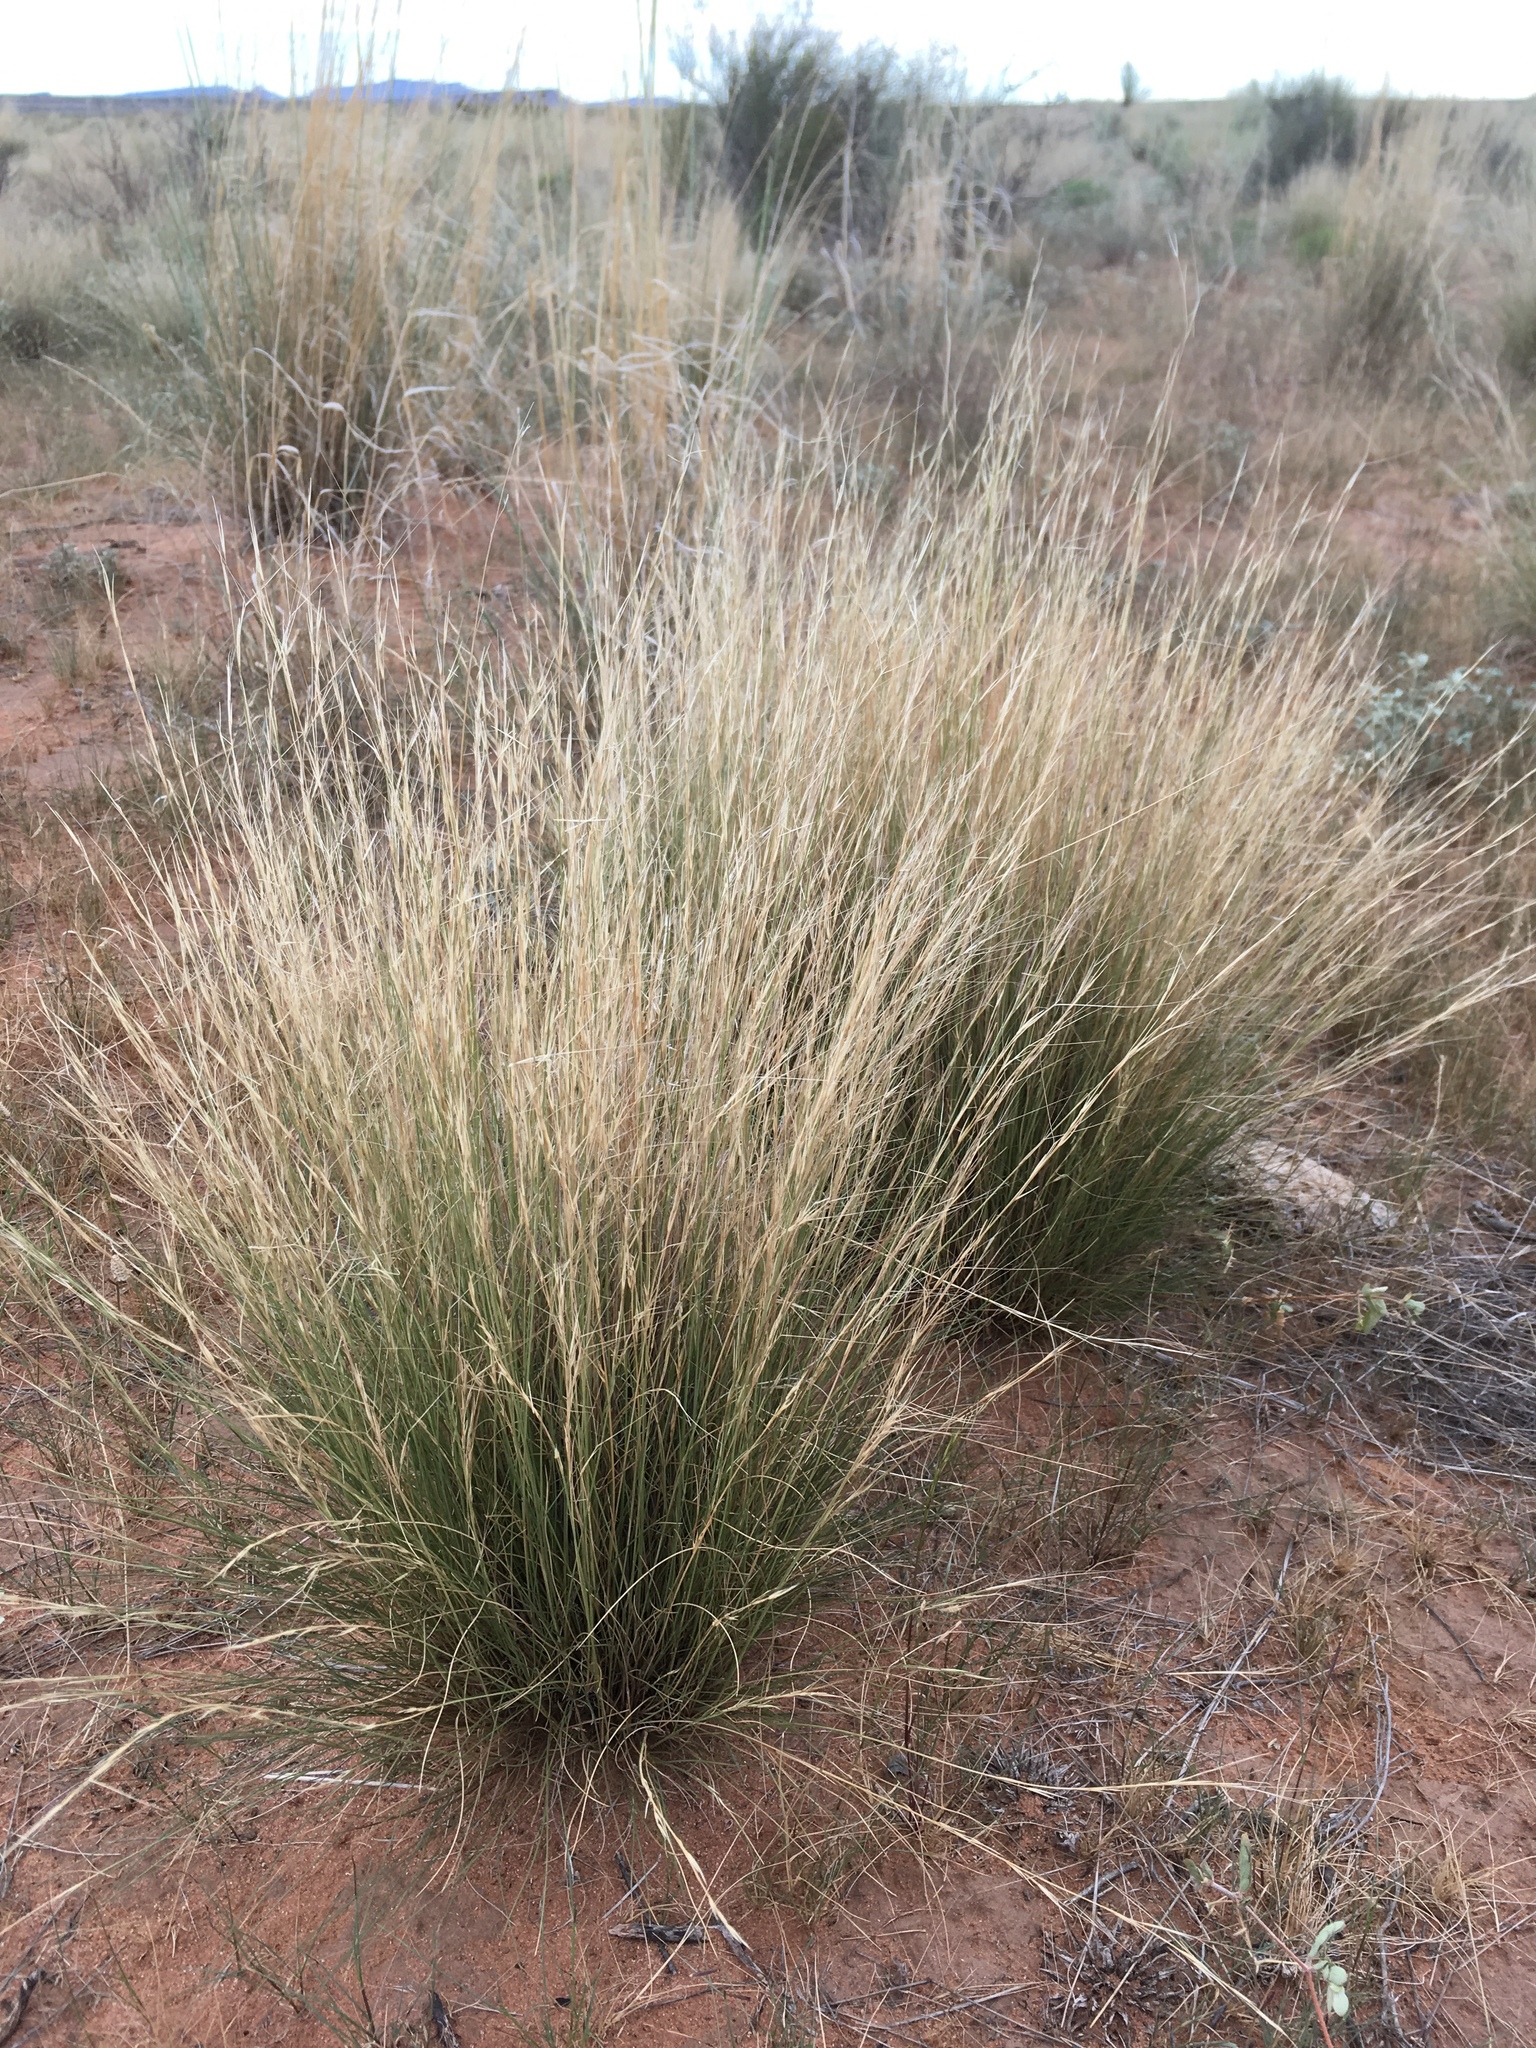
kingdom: Plantae
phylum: Tracheophyta
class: Liliopsida
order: Poales
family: Poaceae
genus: Aristida
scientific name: Aristida purpurea
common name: Purple threeawn
